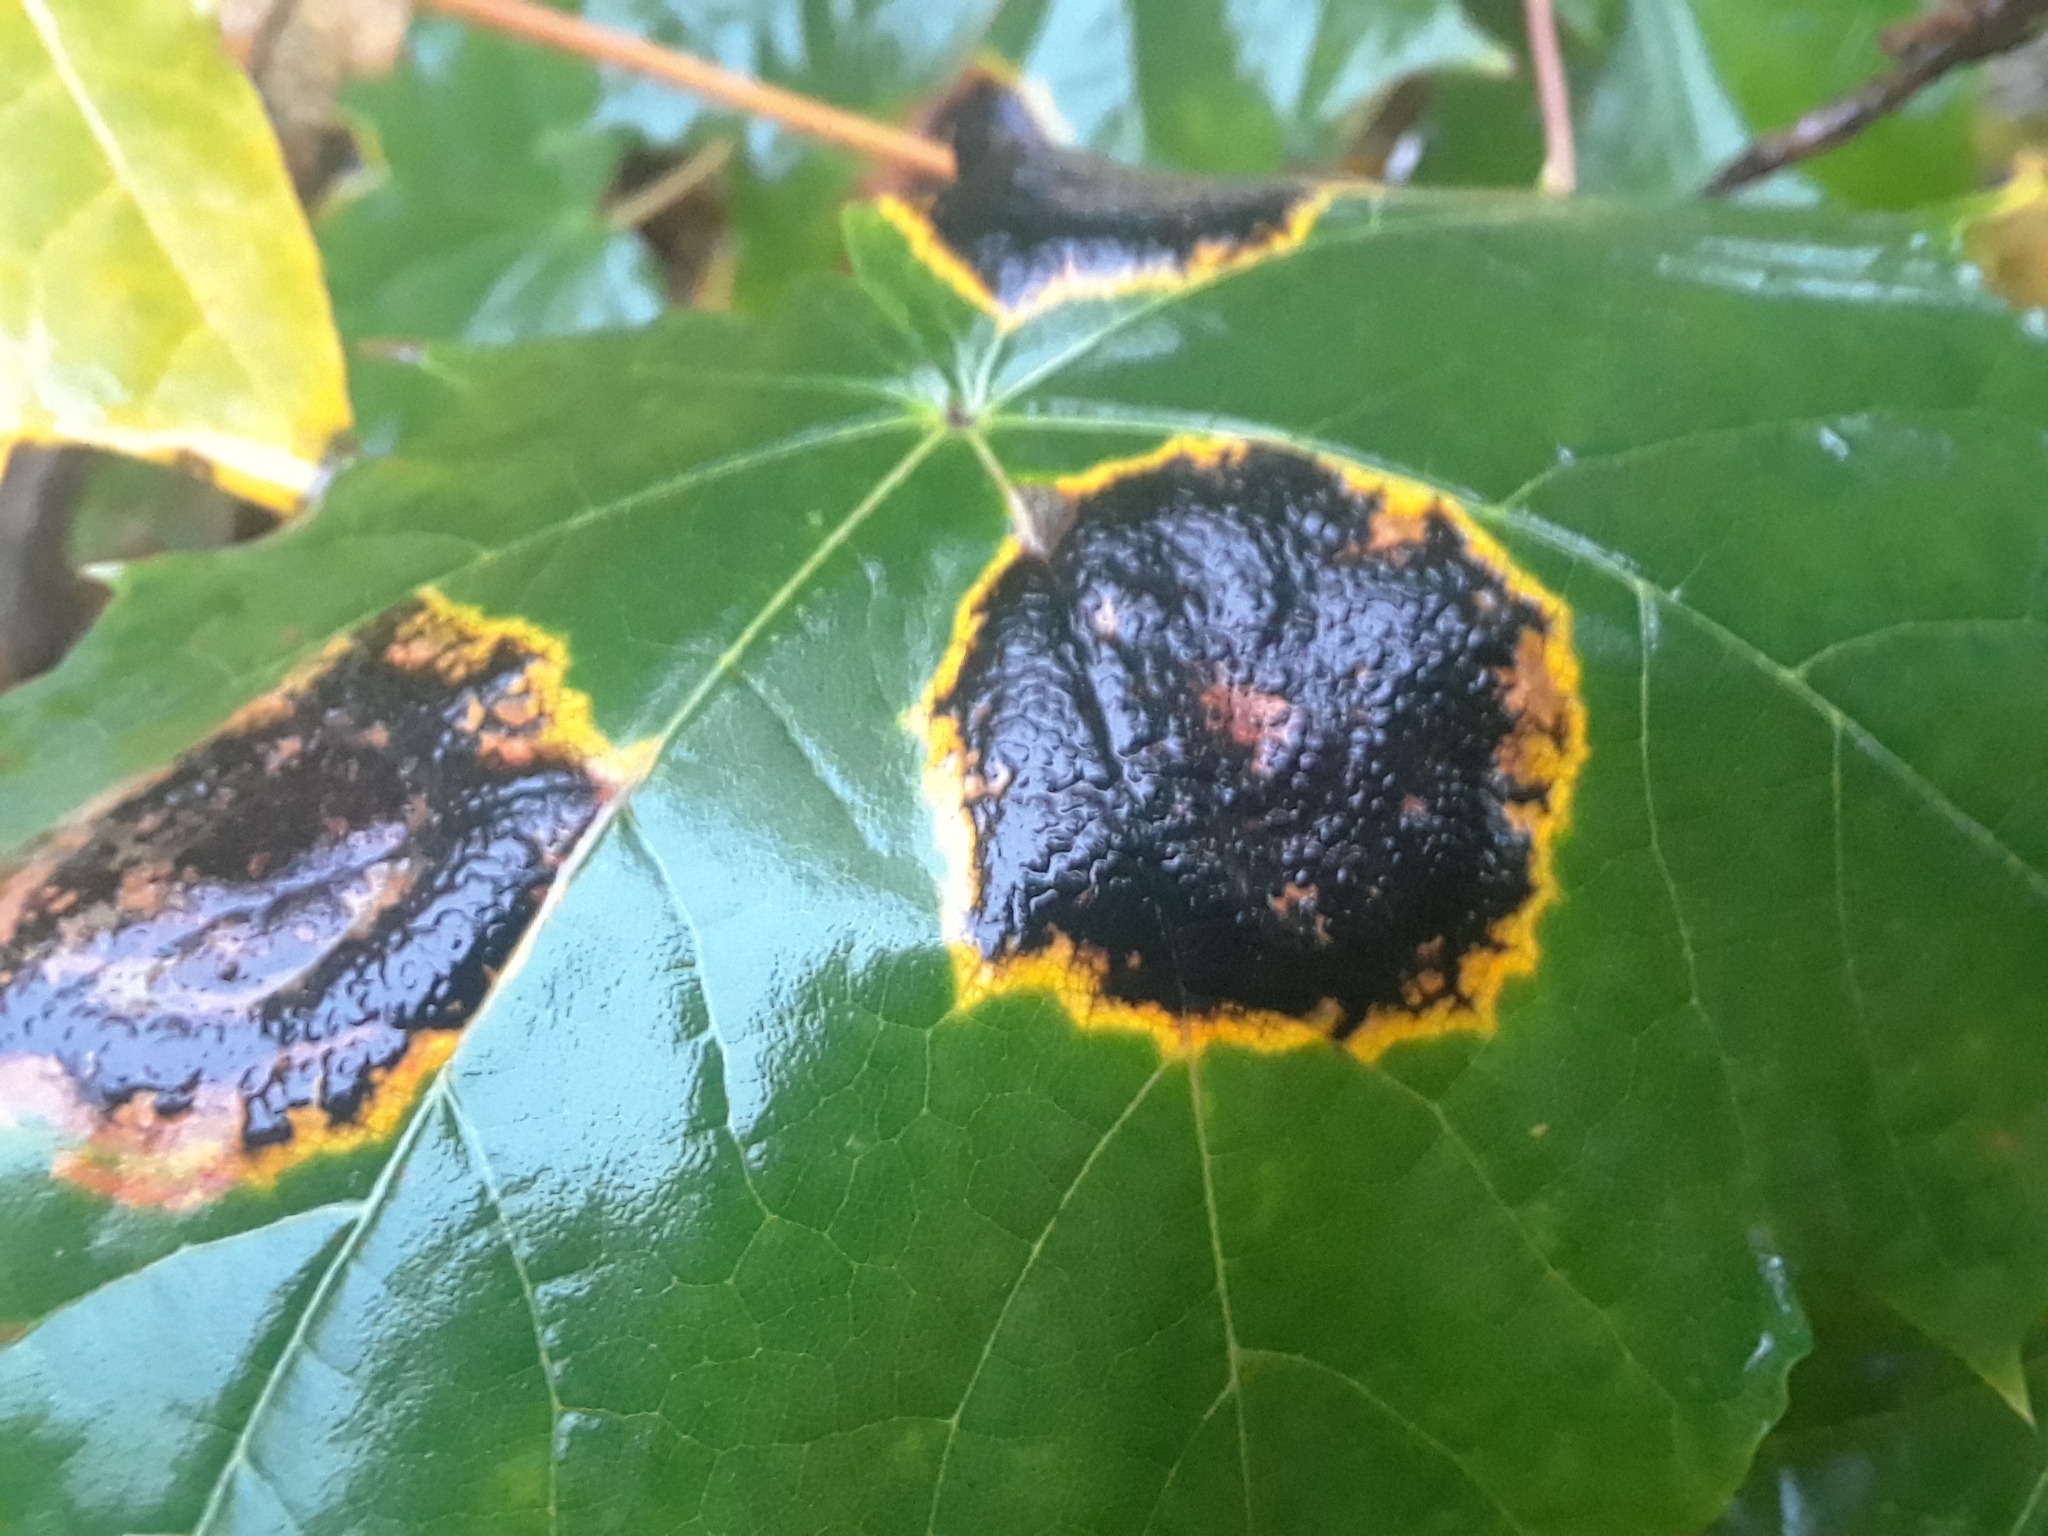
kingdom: Fungi
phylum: Ascomycota
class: Leotiomycetes
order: Rhytismatales
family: Rhytismataceae
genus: Rhytisma
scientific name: Rhytisma acerinum
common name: European tar spot
